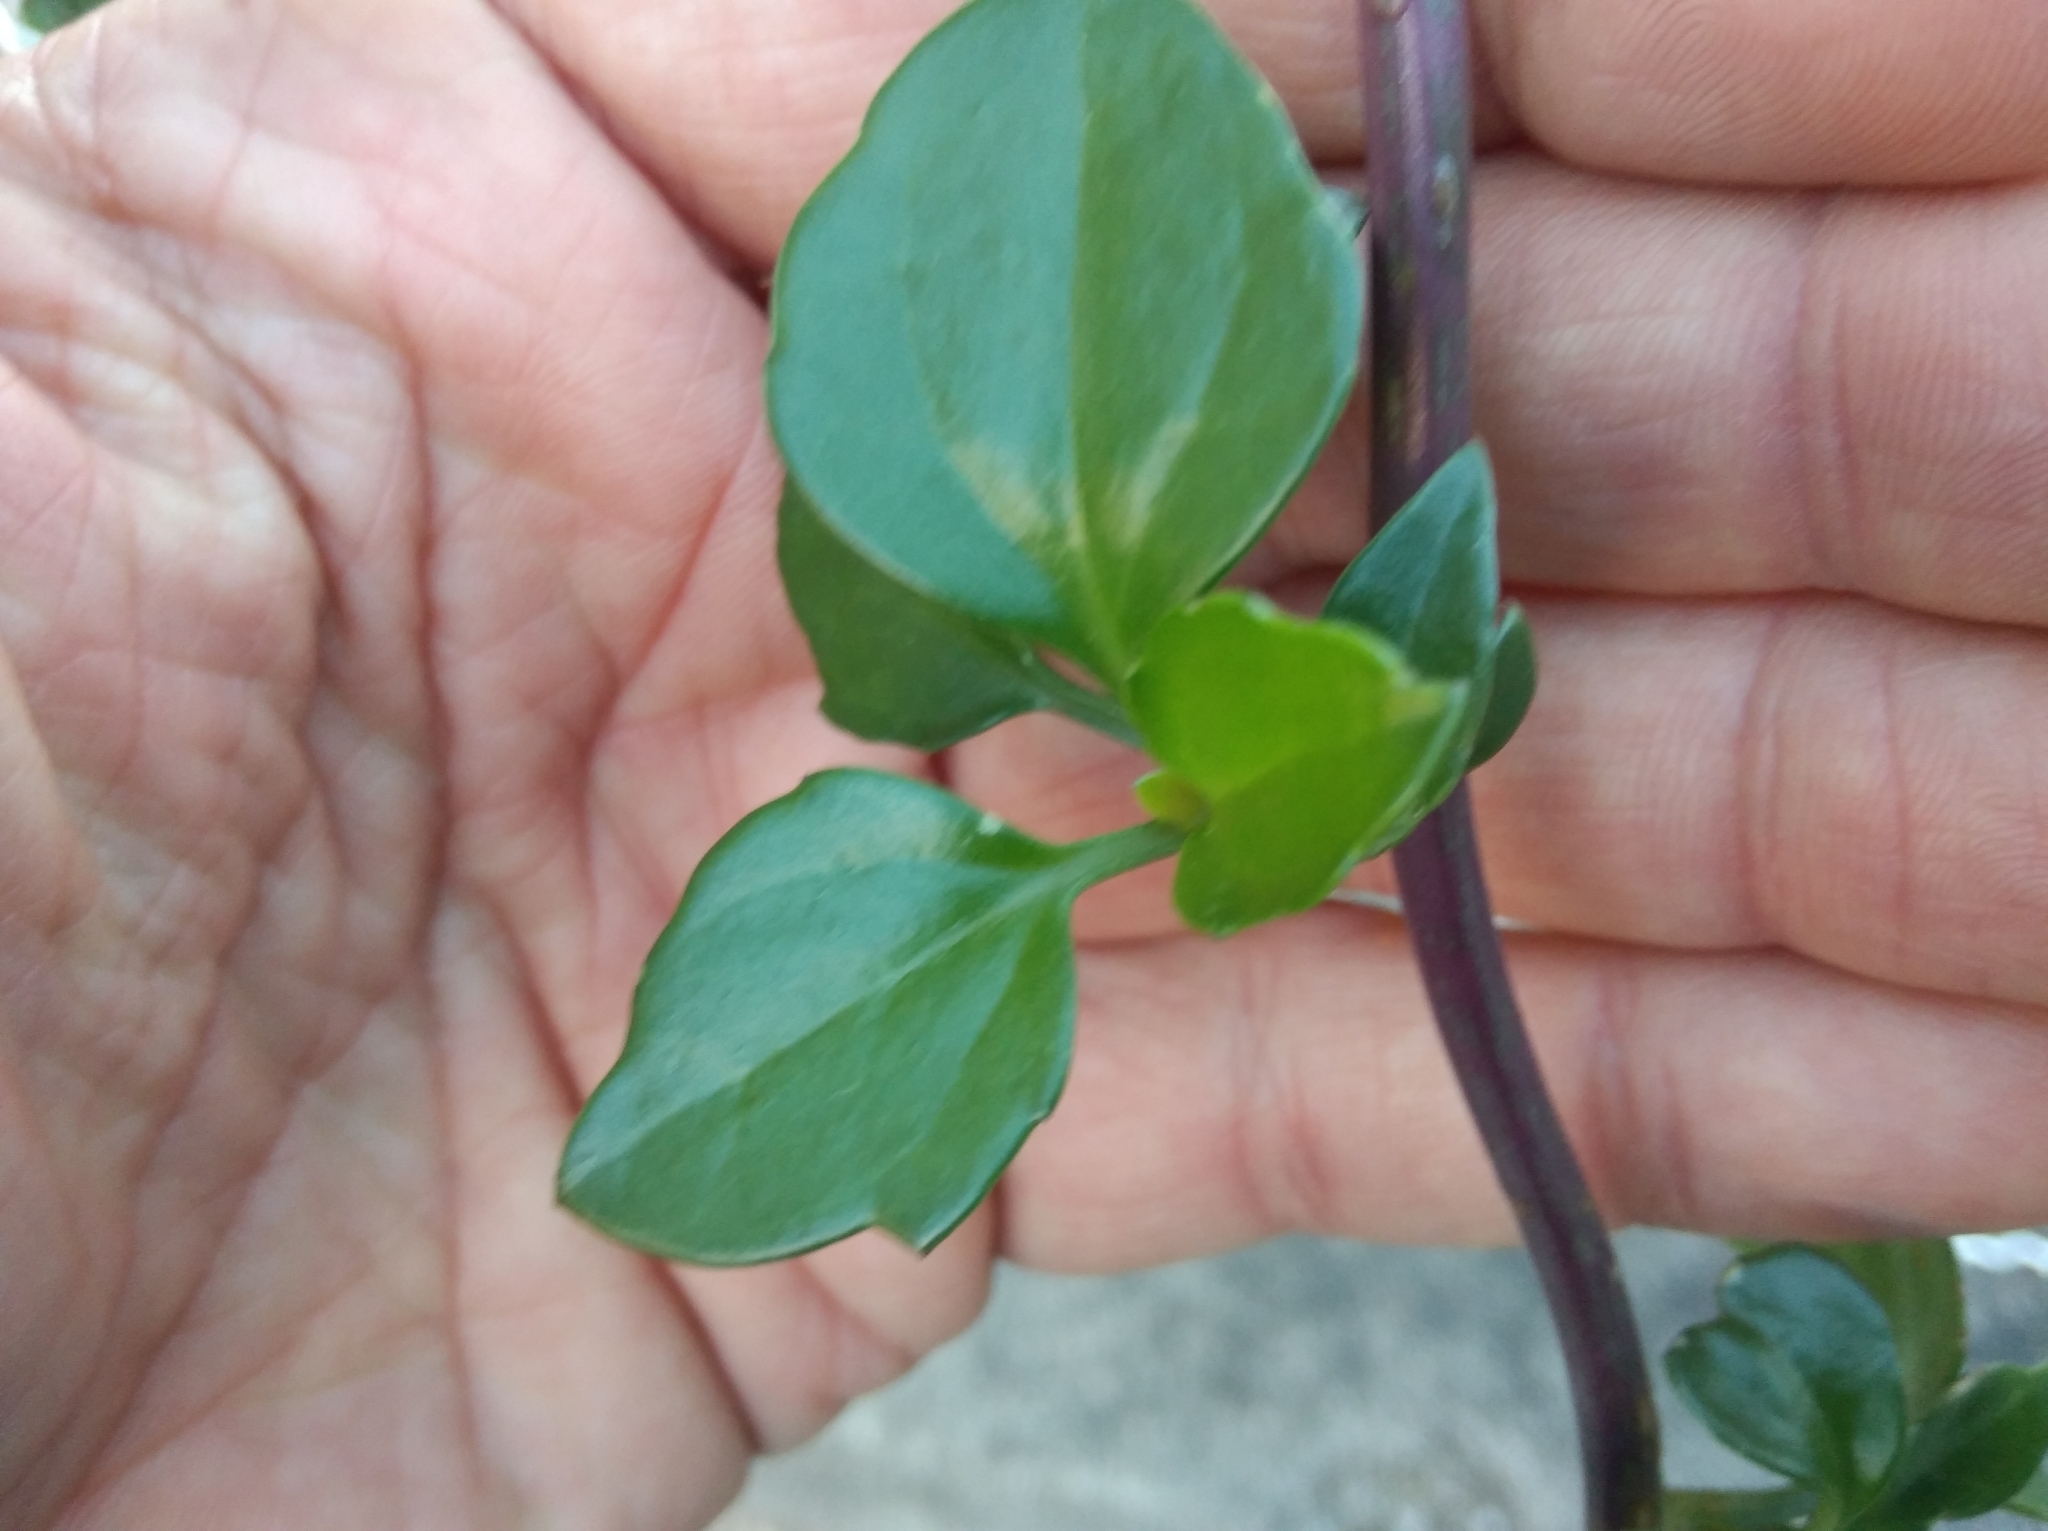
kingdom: Plantae
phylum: Tracheophyta
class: Magnoliopsida
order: Asterales
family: Asteraceae
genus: Senecio
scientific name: Senecio angulatus
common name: Climbing groundsel
